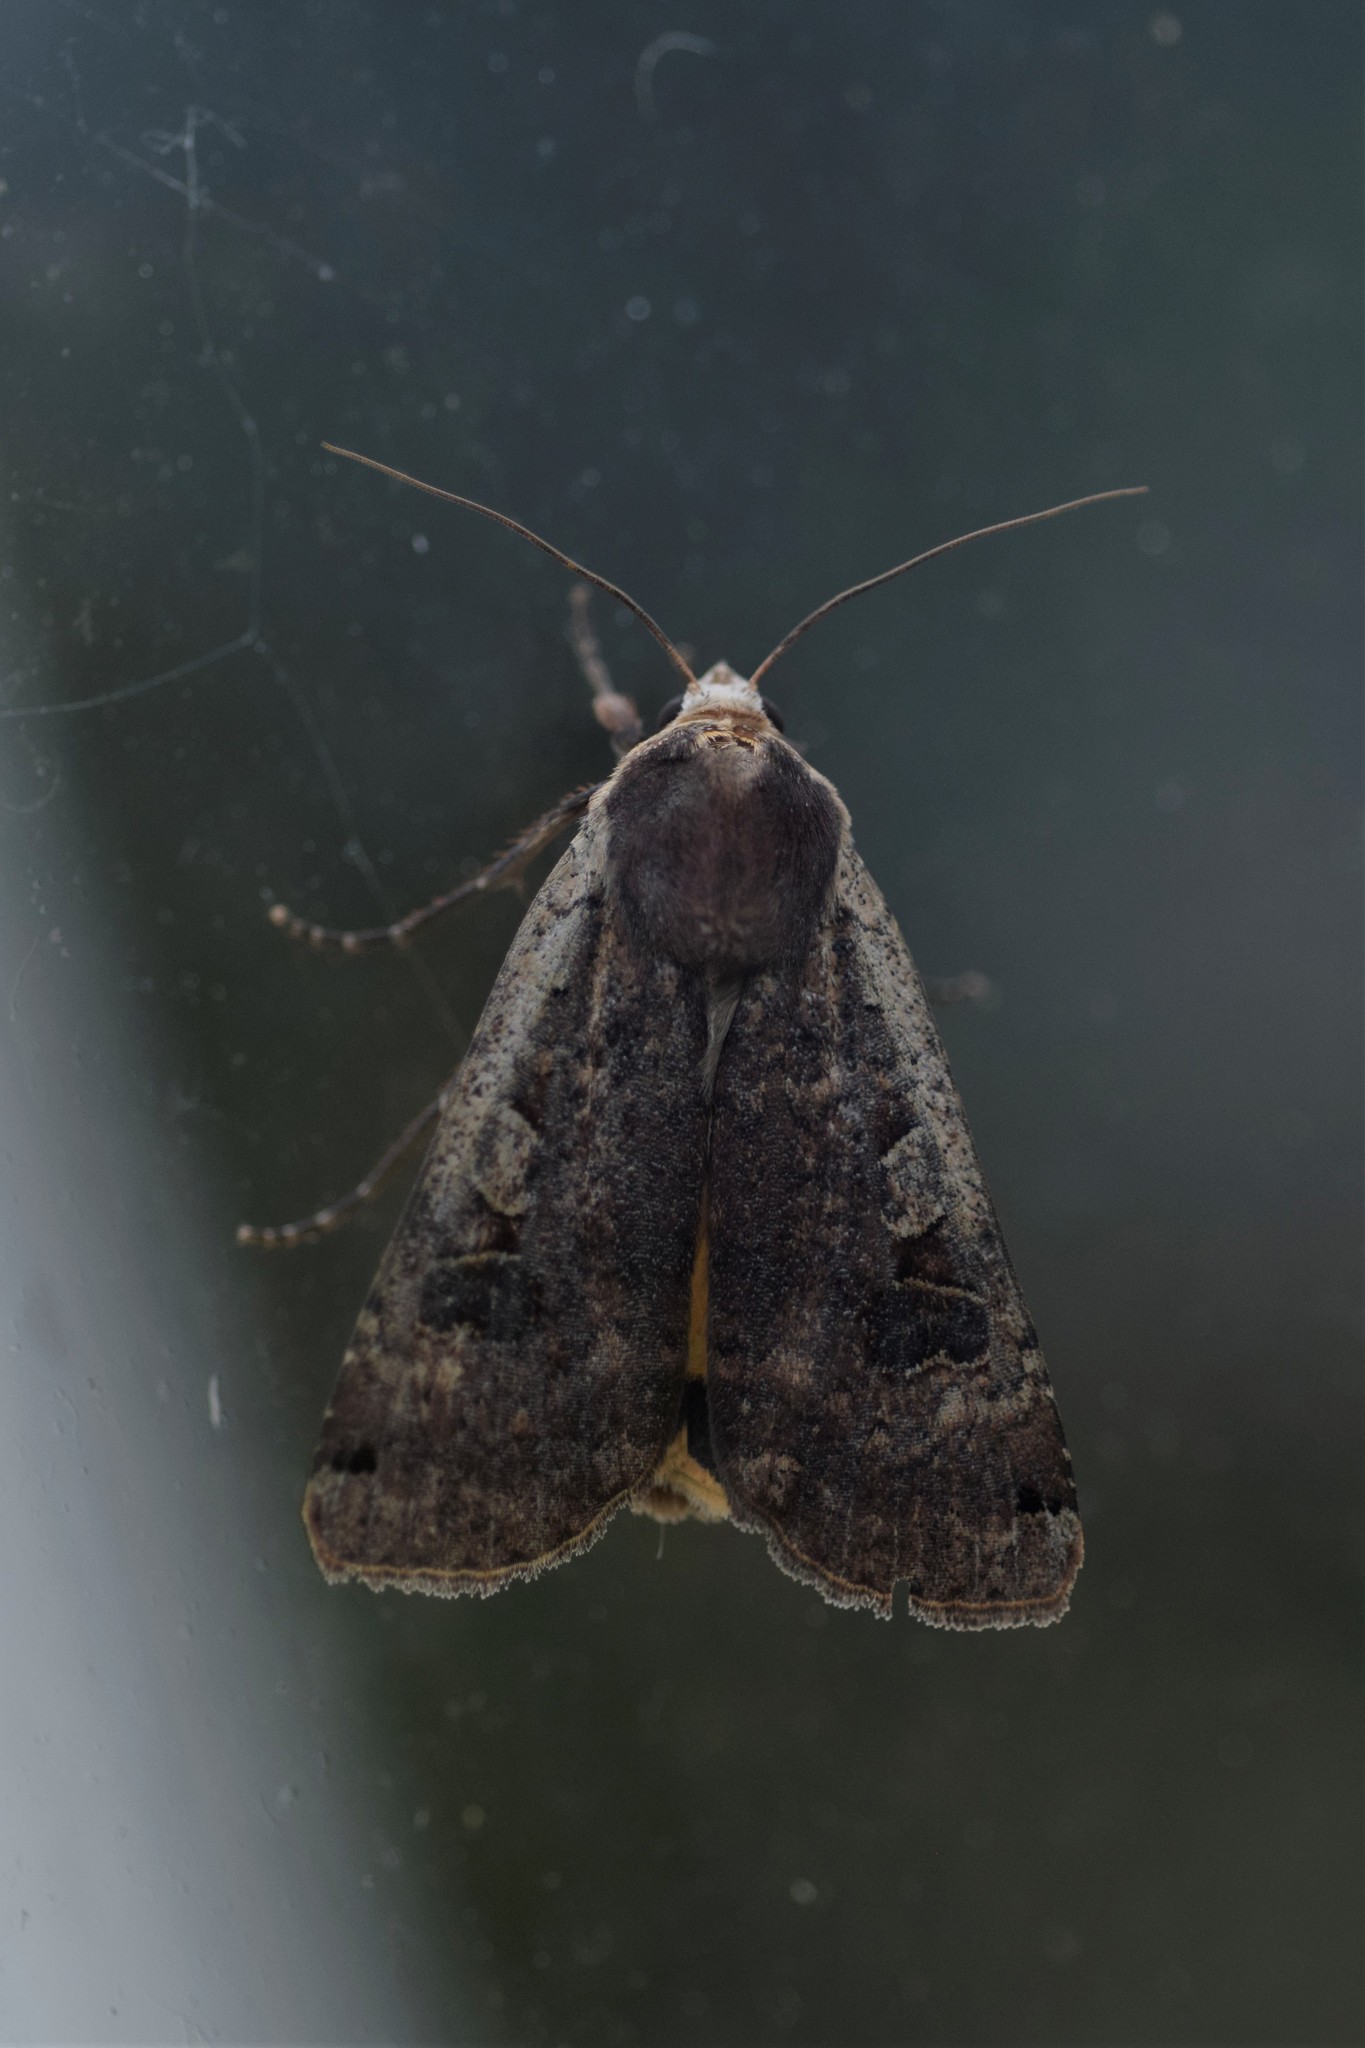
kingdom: Animalia
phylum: Arthropoda
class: Insecta
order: Lepidoptera
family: Noctuidae
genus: Noctua
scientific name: Noctua pronuba
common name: Large yellow underwing
